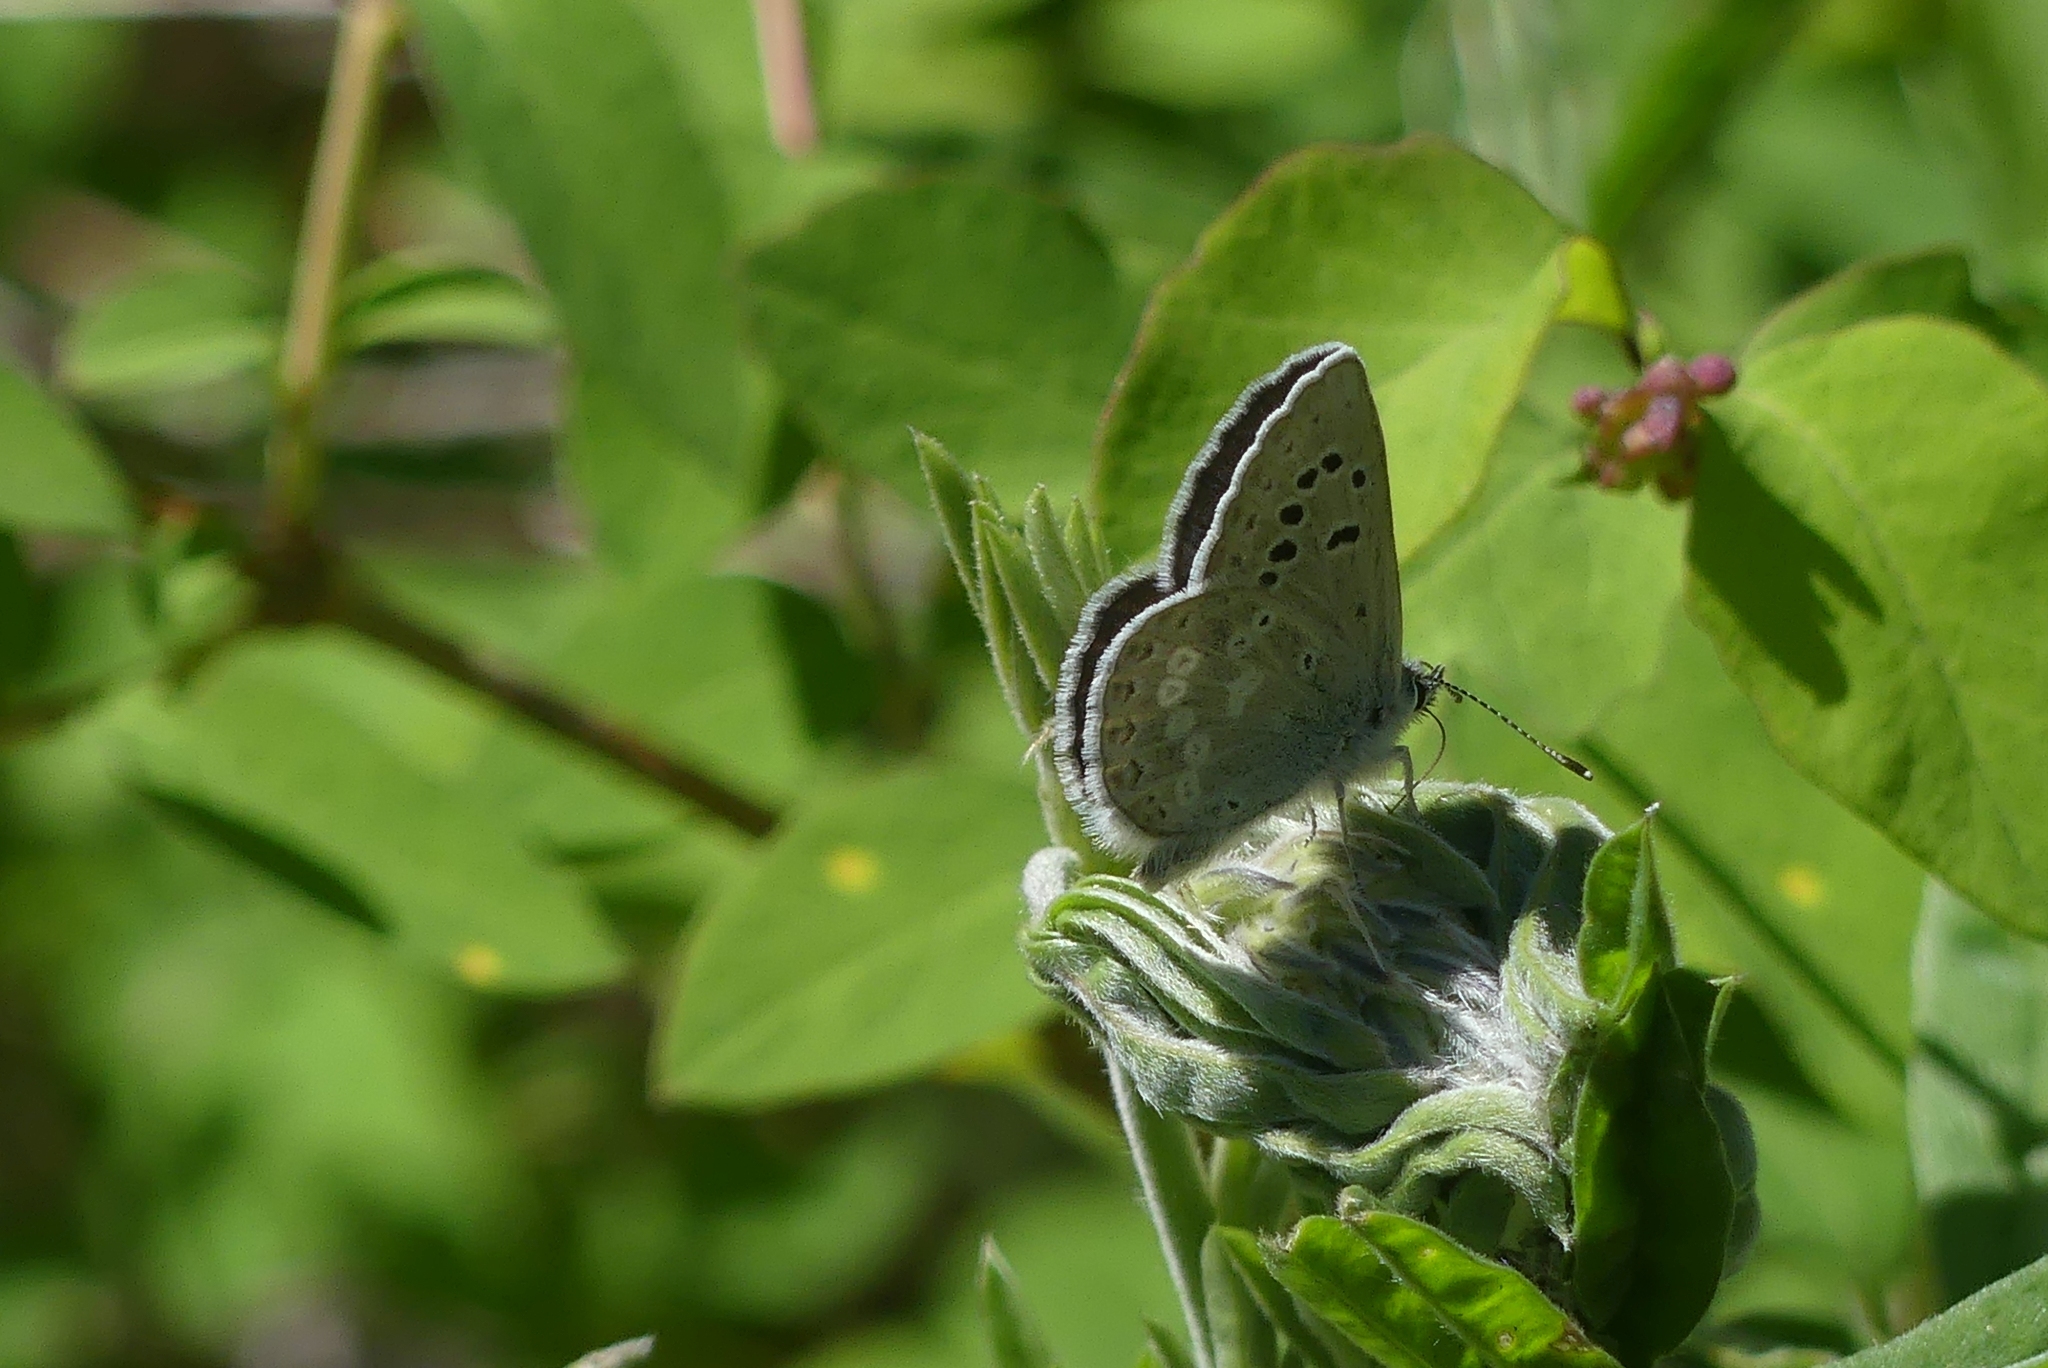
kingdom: Animalia
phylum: Arthropoda
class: Insecta
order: Lepidoptera
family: Lycaenidae
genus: Icaricia
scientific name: Icaricia icarioides
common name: Boisduval's blue
